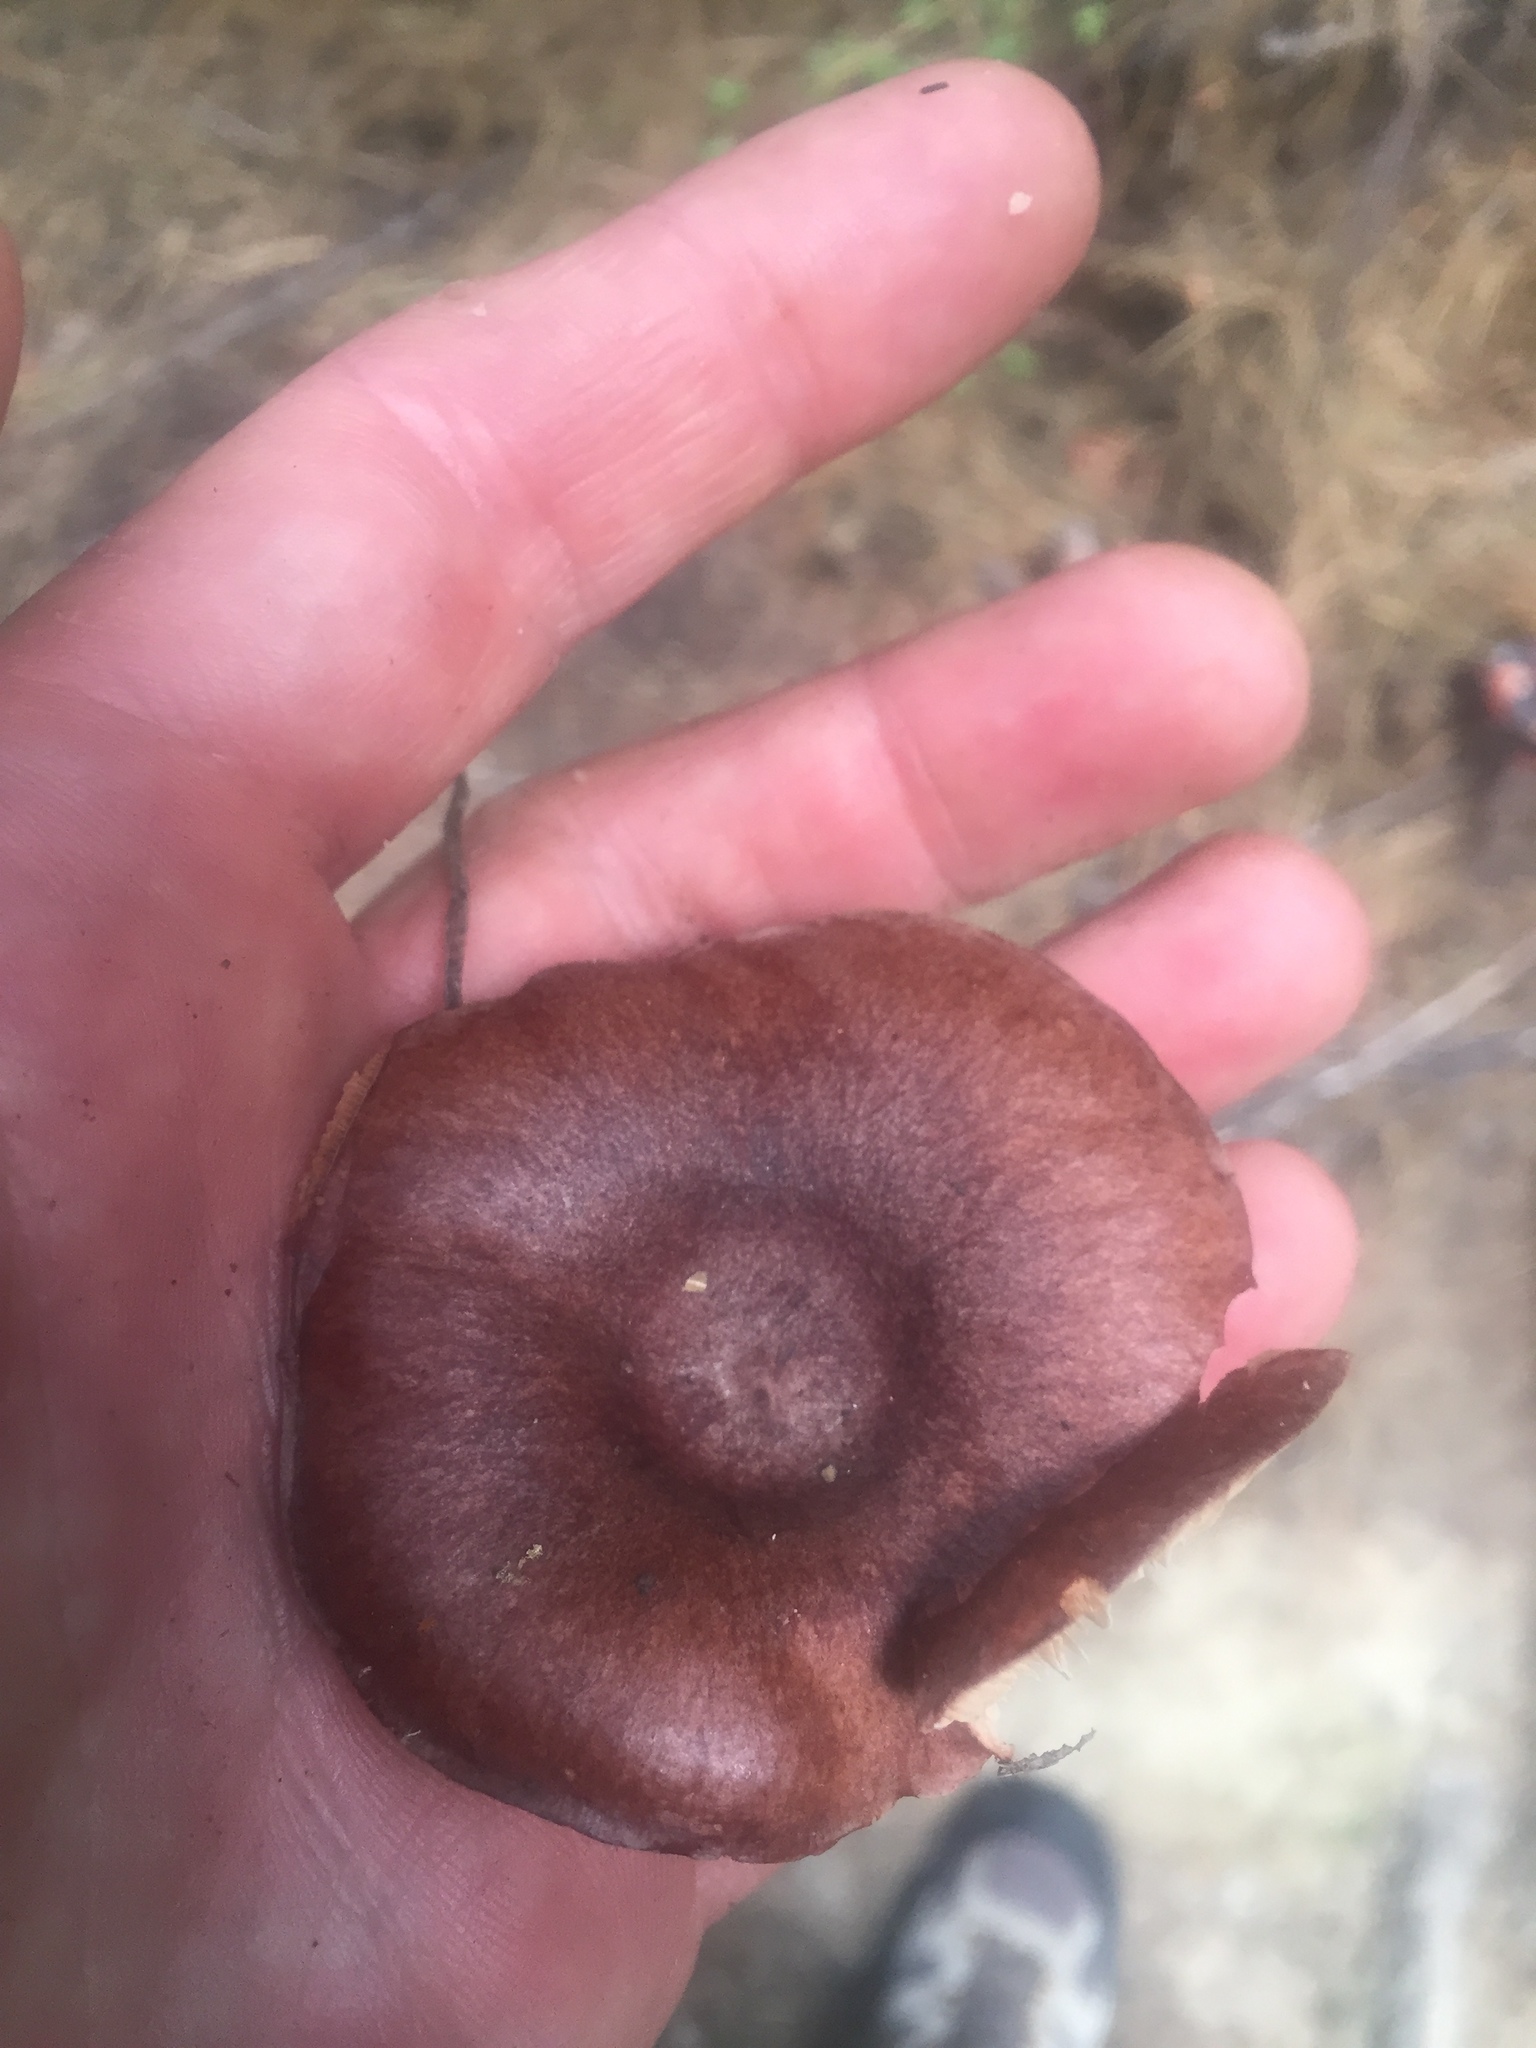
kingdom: Fungi
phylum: Basidiomycota
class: Agaricomycetes
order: Russulales
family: Russulaceae
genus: Lactarius
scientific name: Lactarius rufus
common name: Rufous milk-cap
